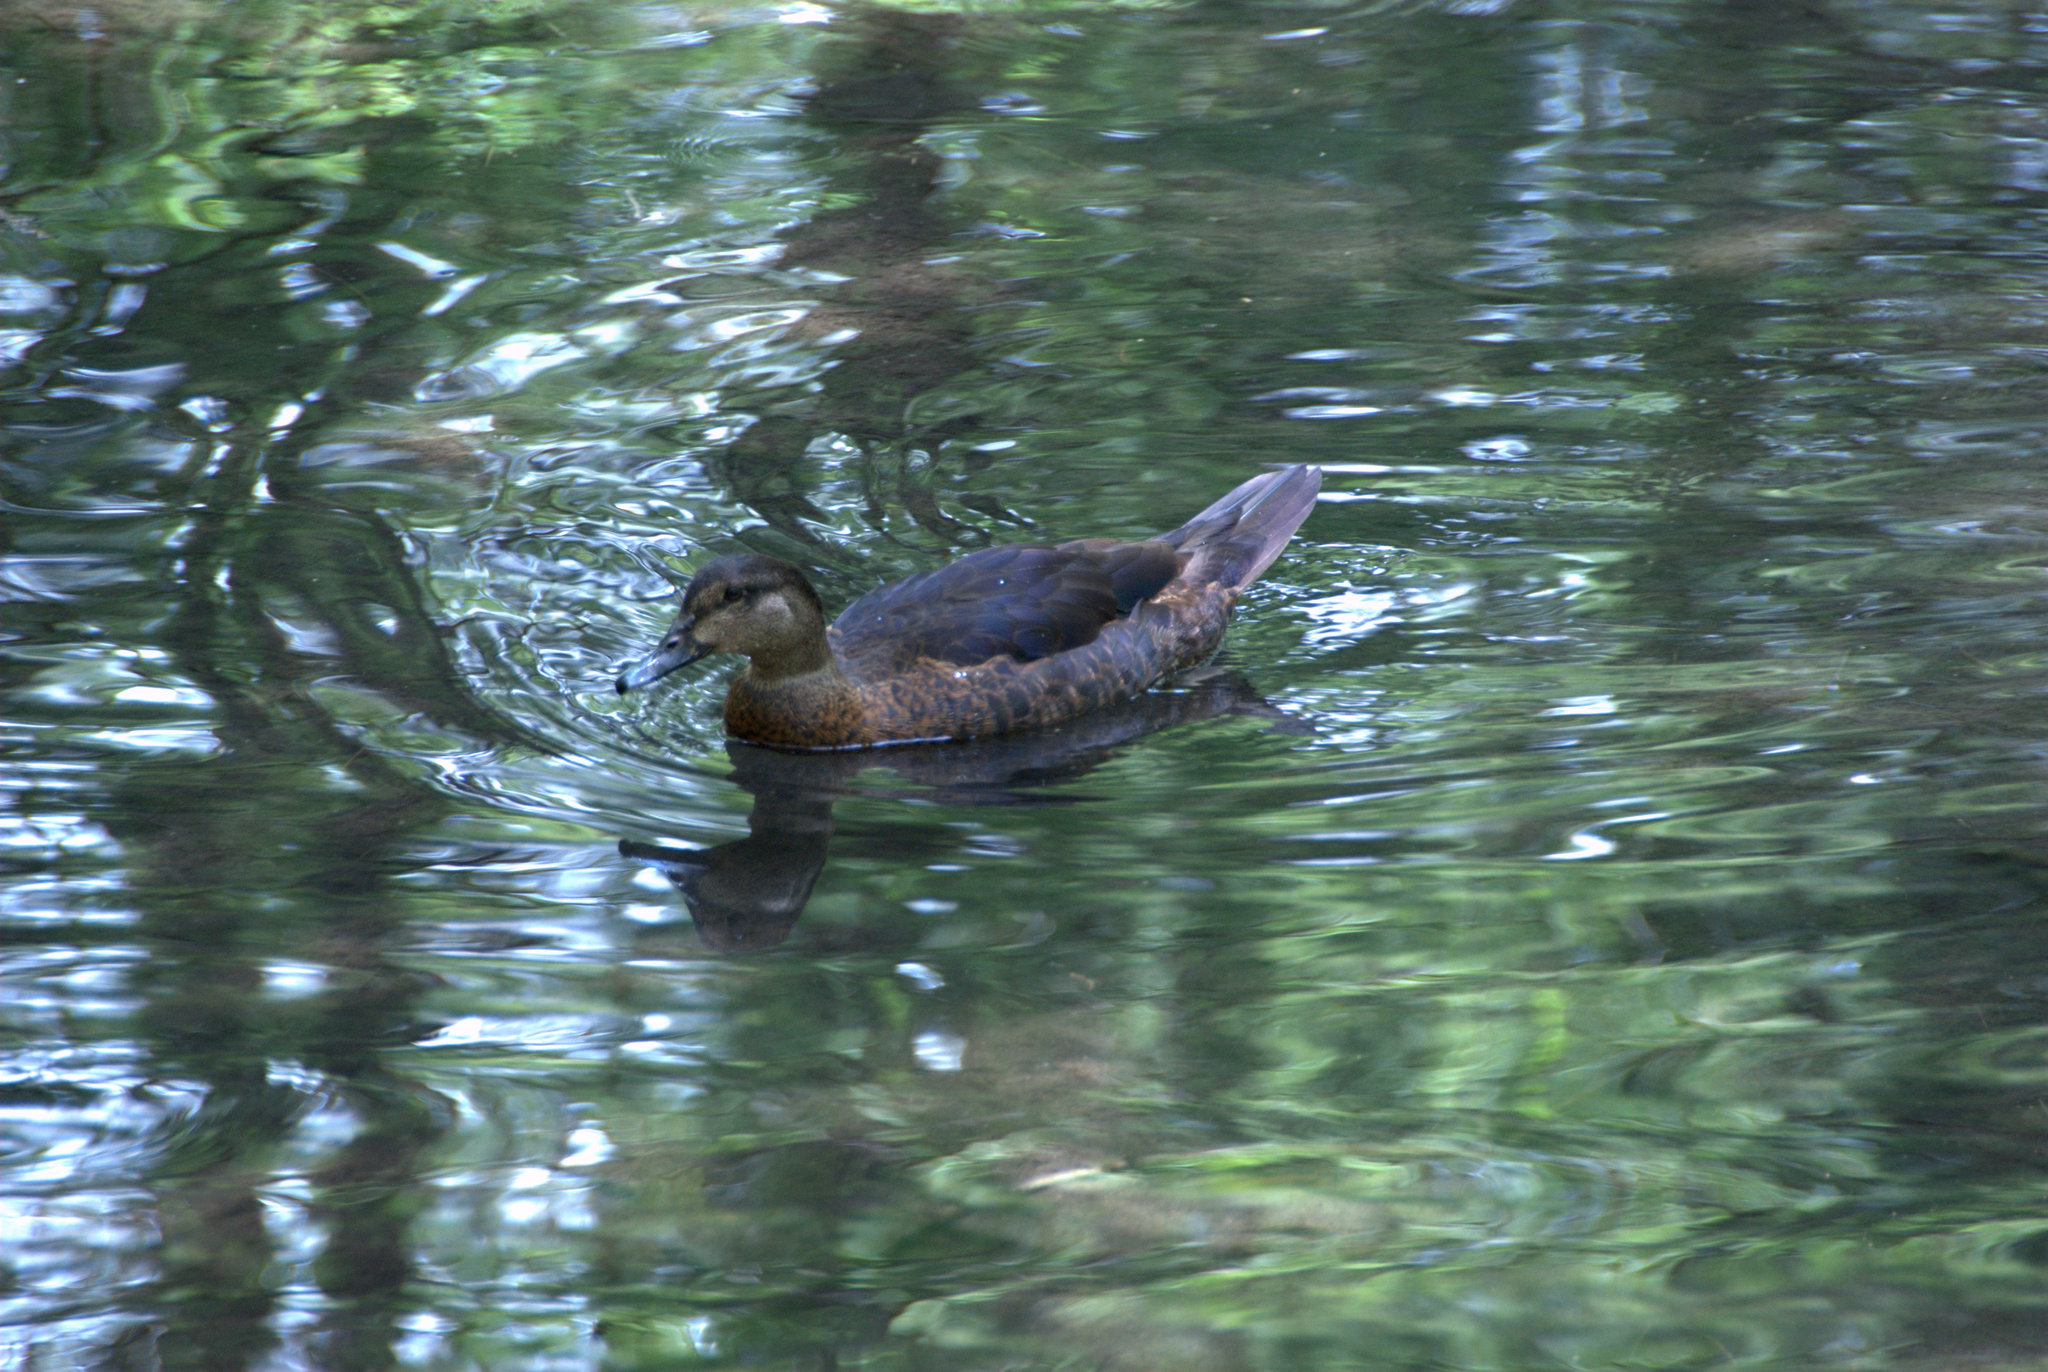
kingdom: Animalia
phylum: Chordata
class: Aves
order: Anseriformes
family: Anatidae
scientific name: Anatidae
